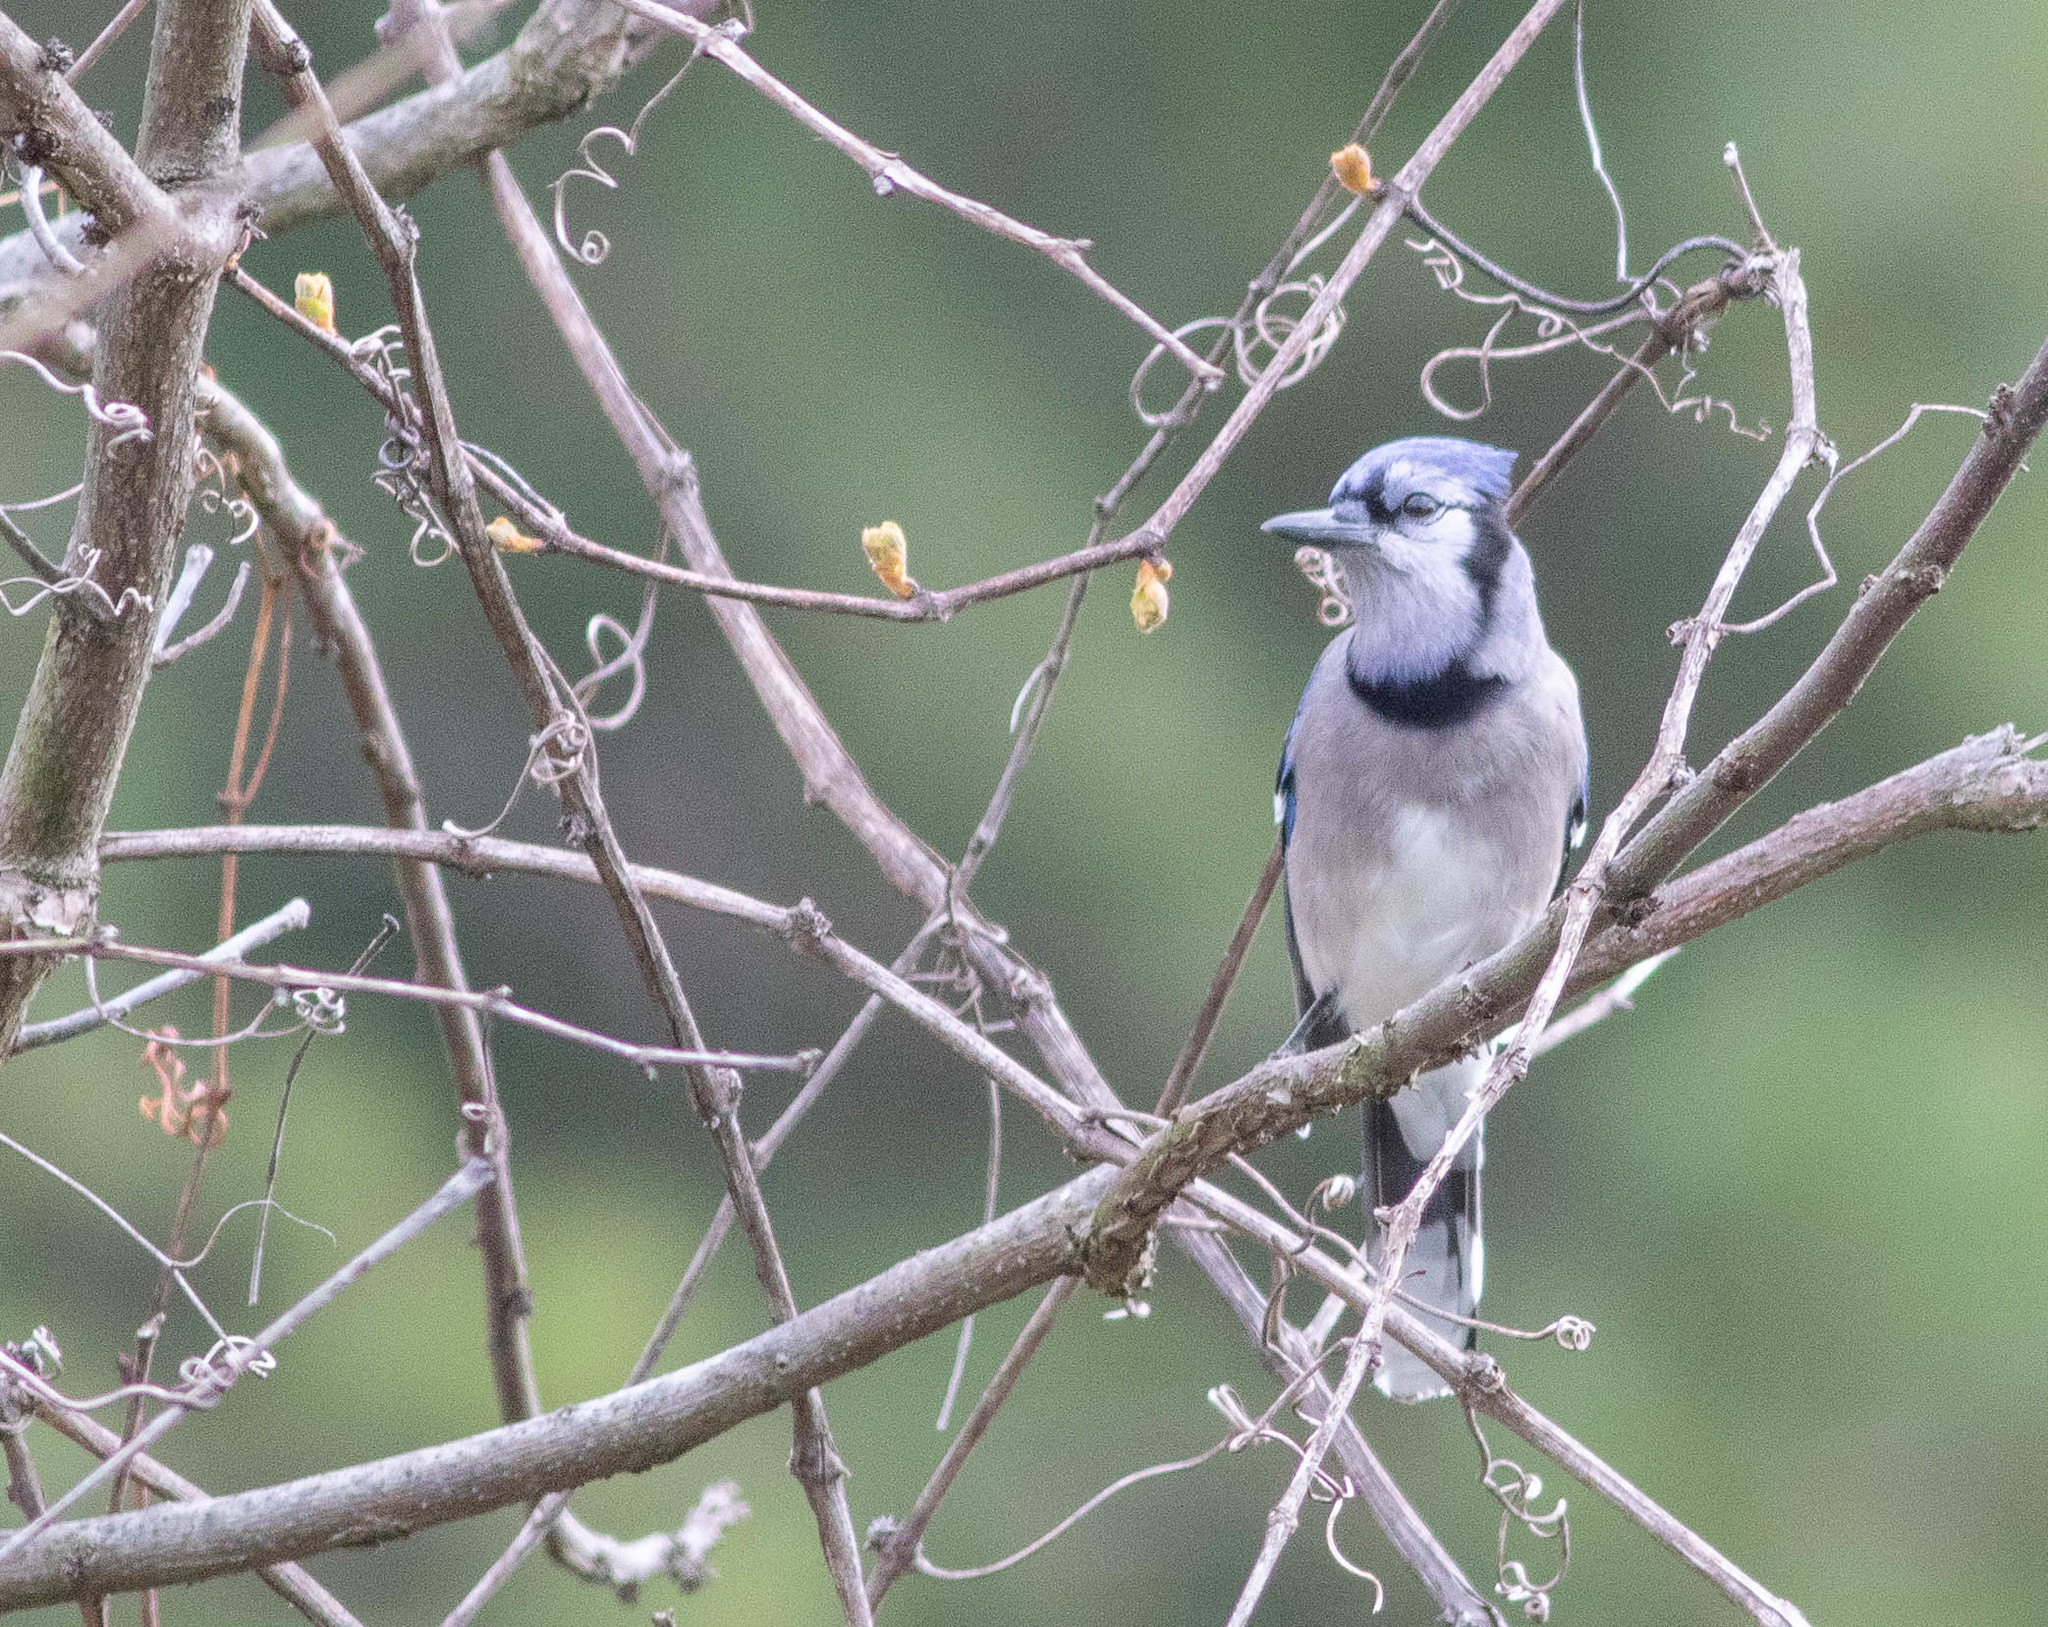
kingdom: Animalia
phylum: Chordata
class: Aves
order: Passeriformes
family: Corvidae
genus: Cyanocitta
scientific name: Cyanocitta cristata
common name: Blue jay
